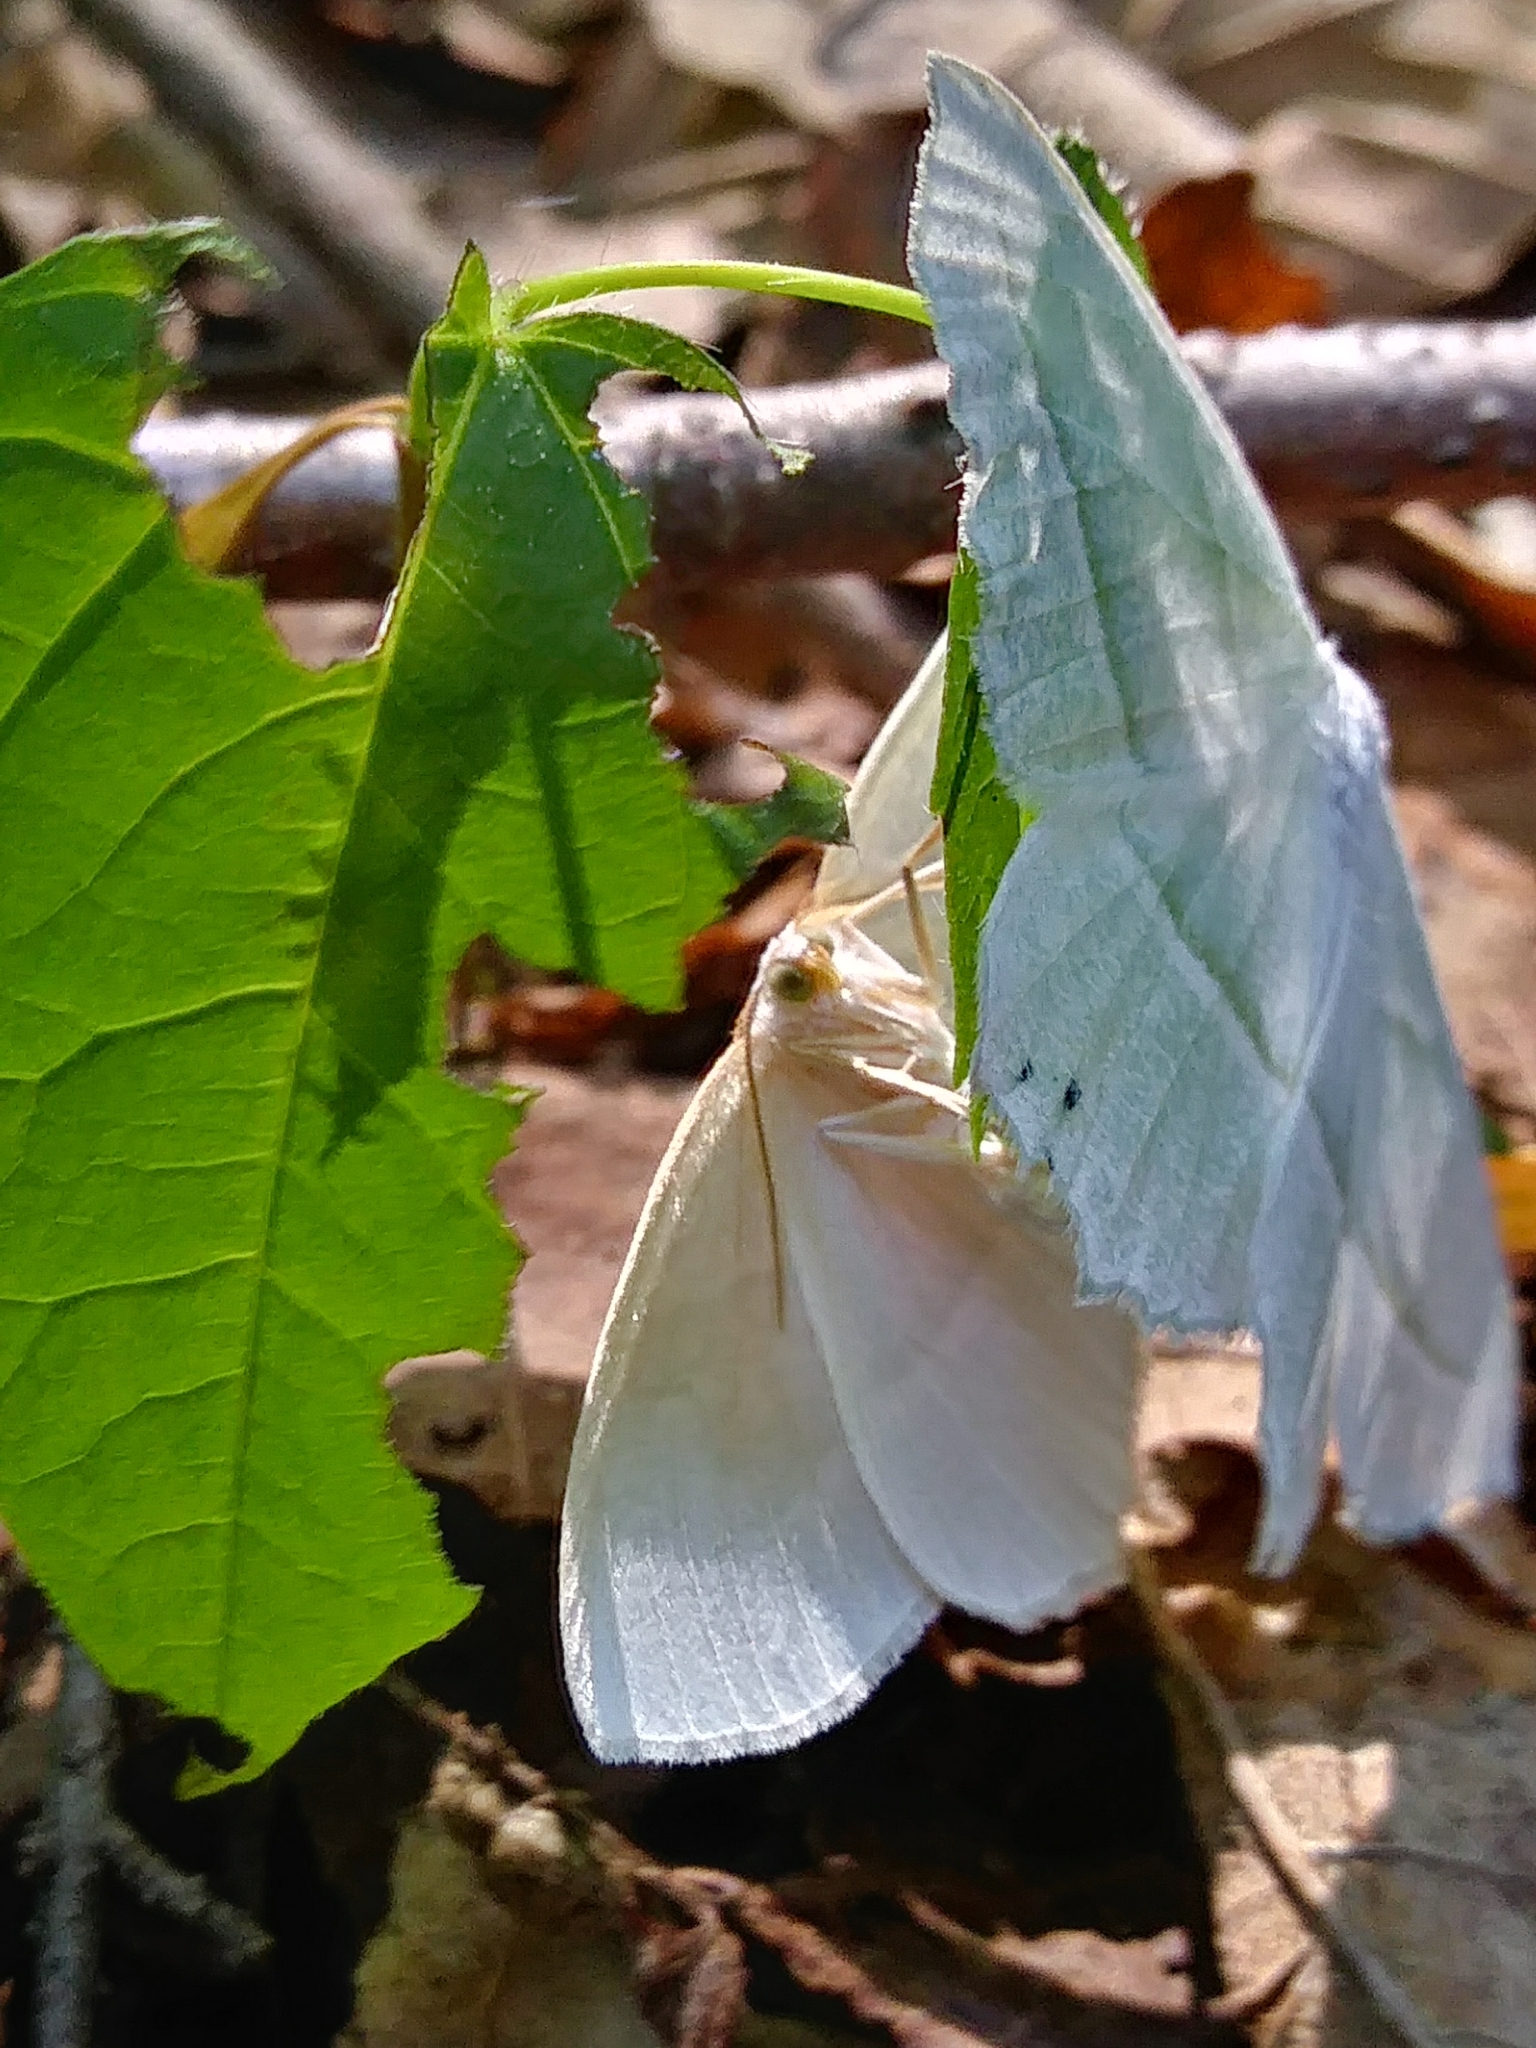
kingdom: Animalia
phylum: Arthropoda
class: Insecta
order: Lepidoptera
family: Geometridae
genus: Campaea
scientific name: Campaea perlata
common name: Fringed looper
